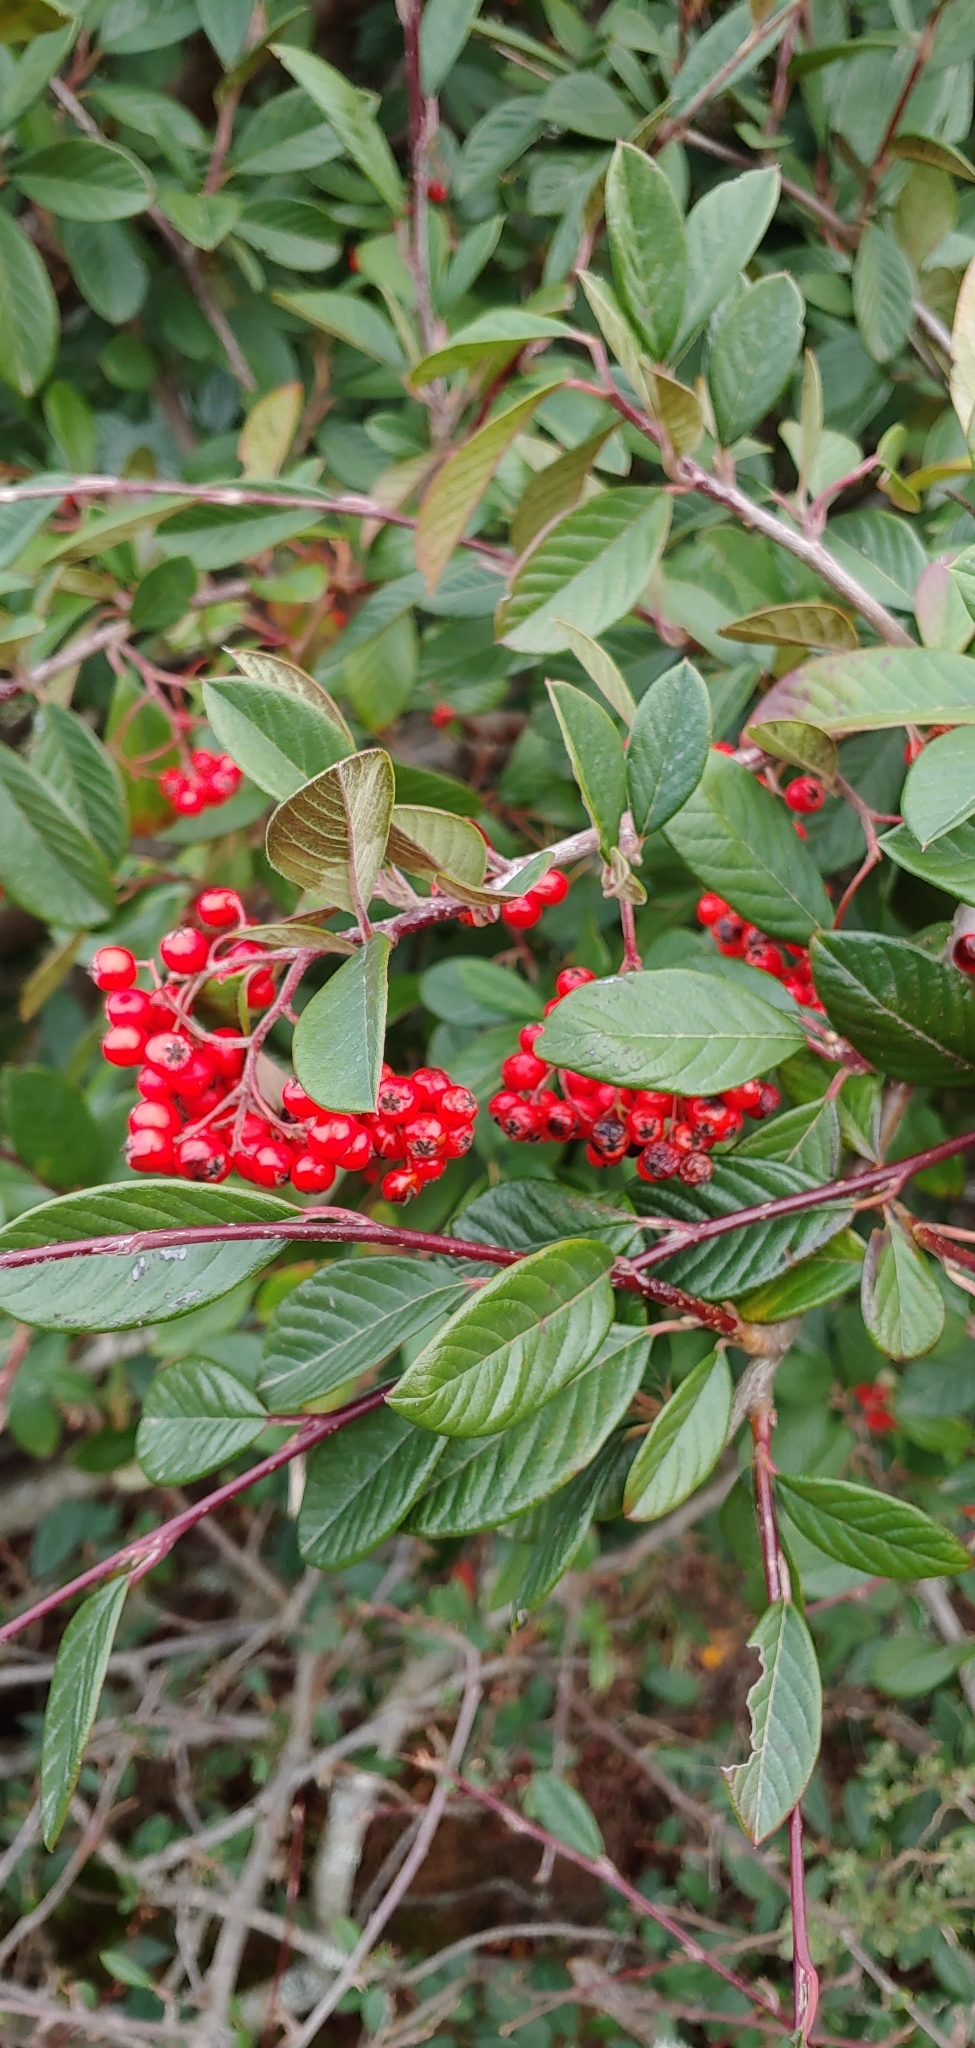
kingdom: Plantae
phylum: Tracheophyta
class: Magnoliopsida
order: Rosales
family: Rosaceae
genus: Cotoneaster
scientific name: Cotoneaster coriaceus
